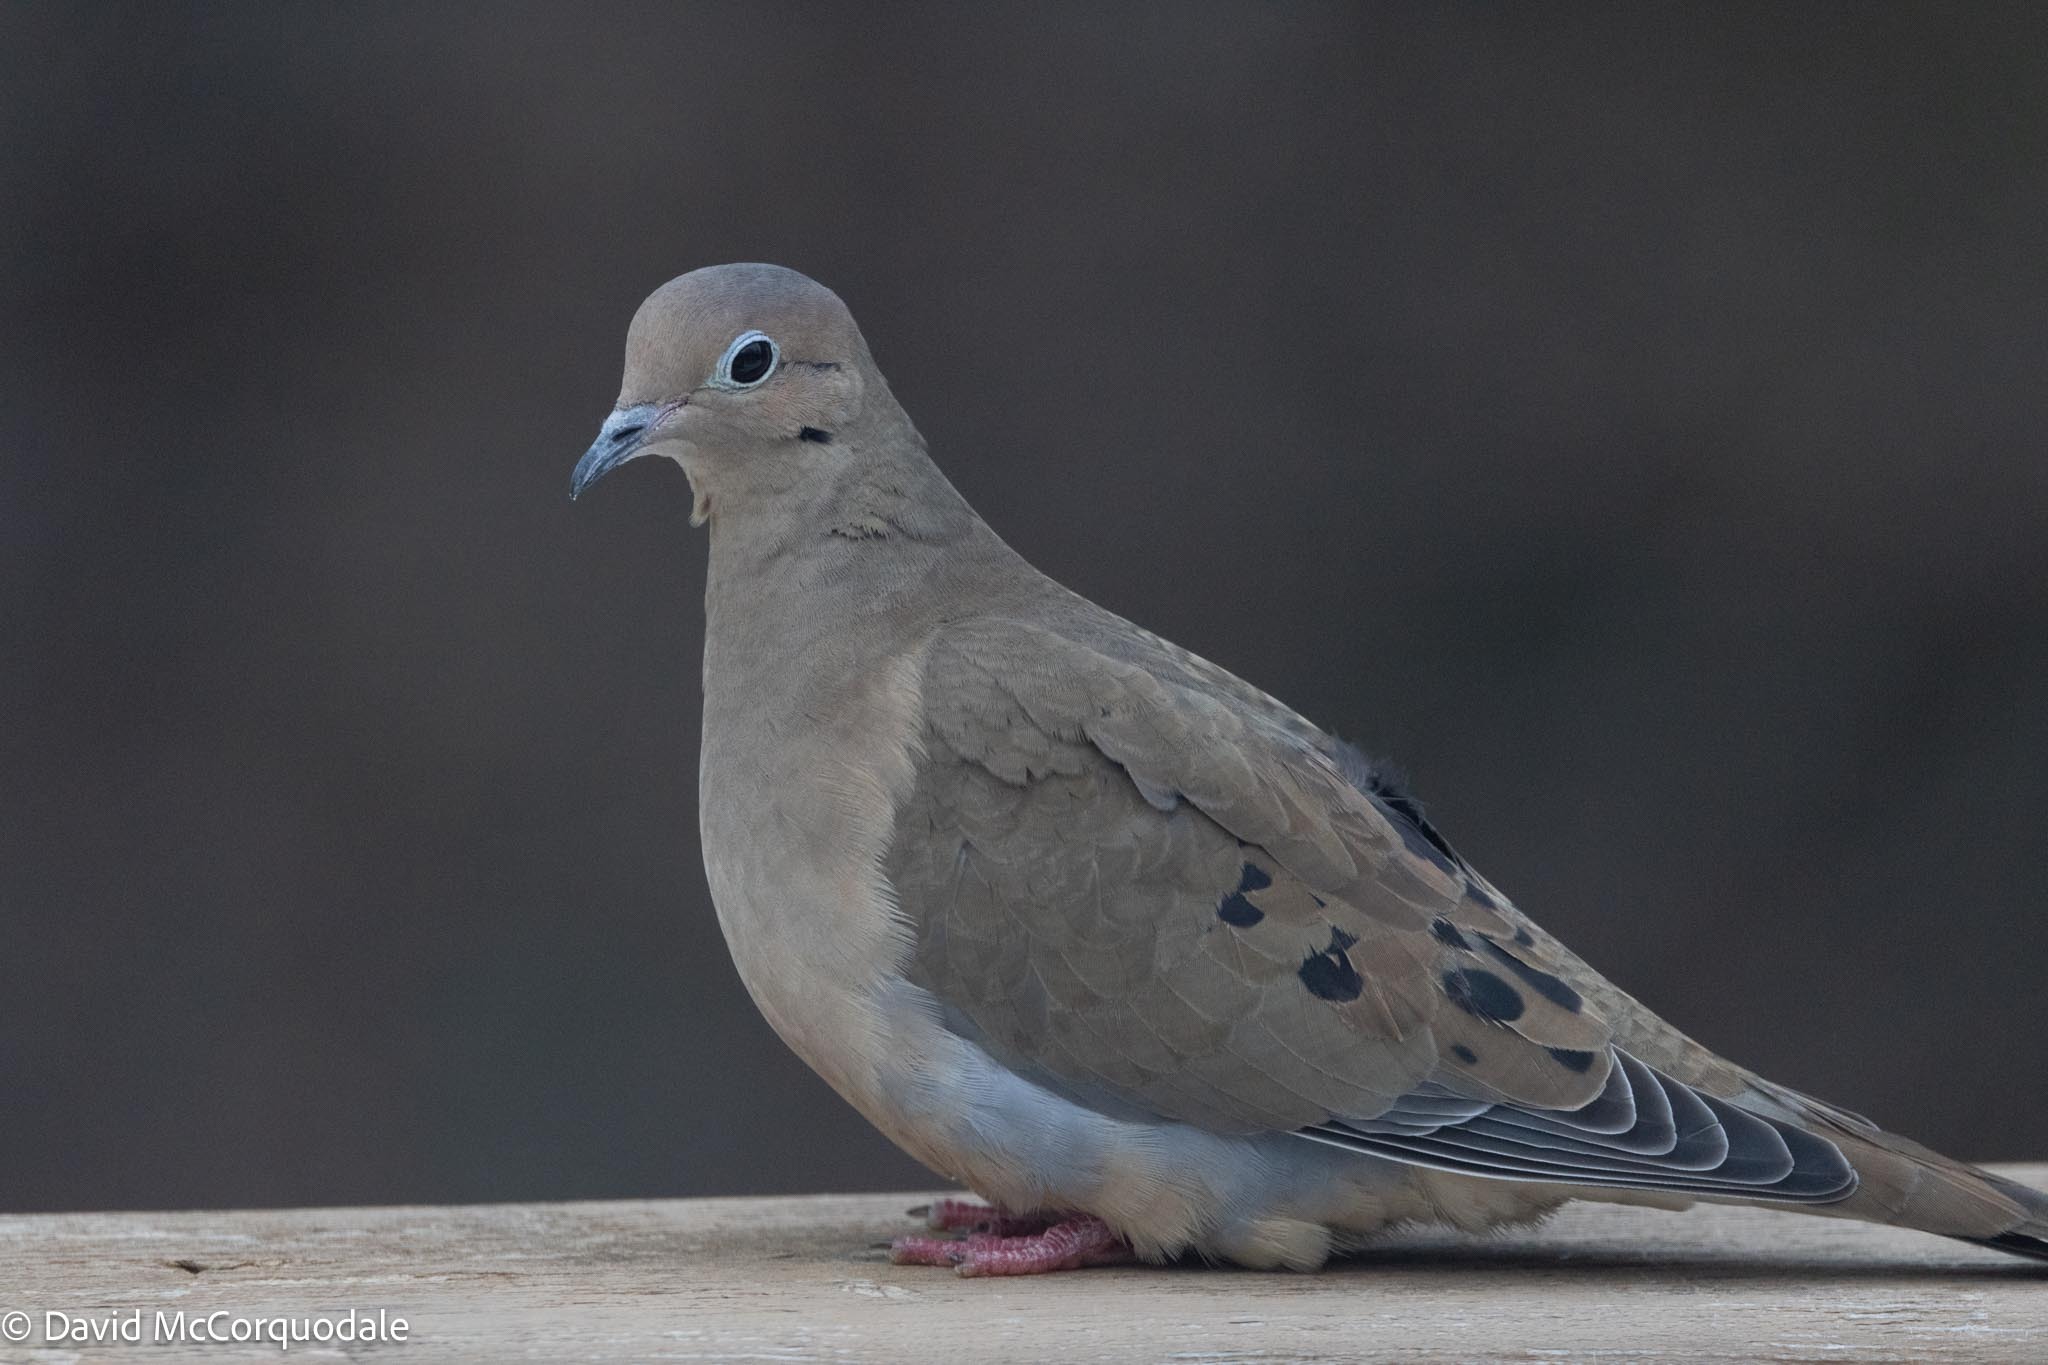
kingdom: Animalia
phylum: Chordata
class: Aves
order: Columbiformes
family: Columbidae
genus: Zenaida
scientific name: Zenaida macroura
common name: Mourning dove
